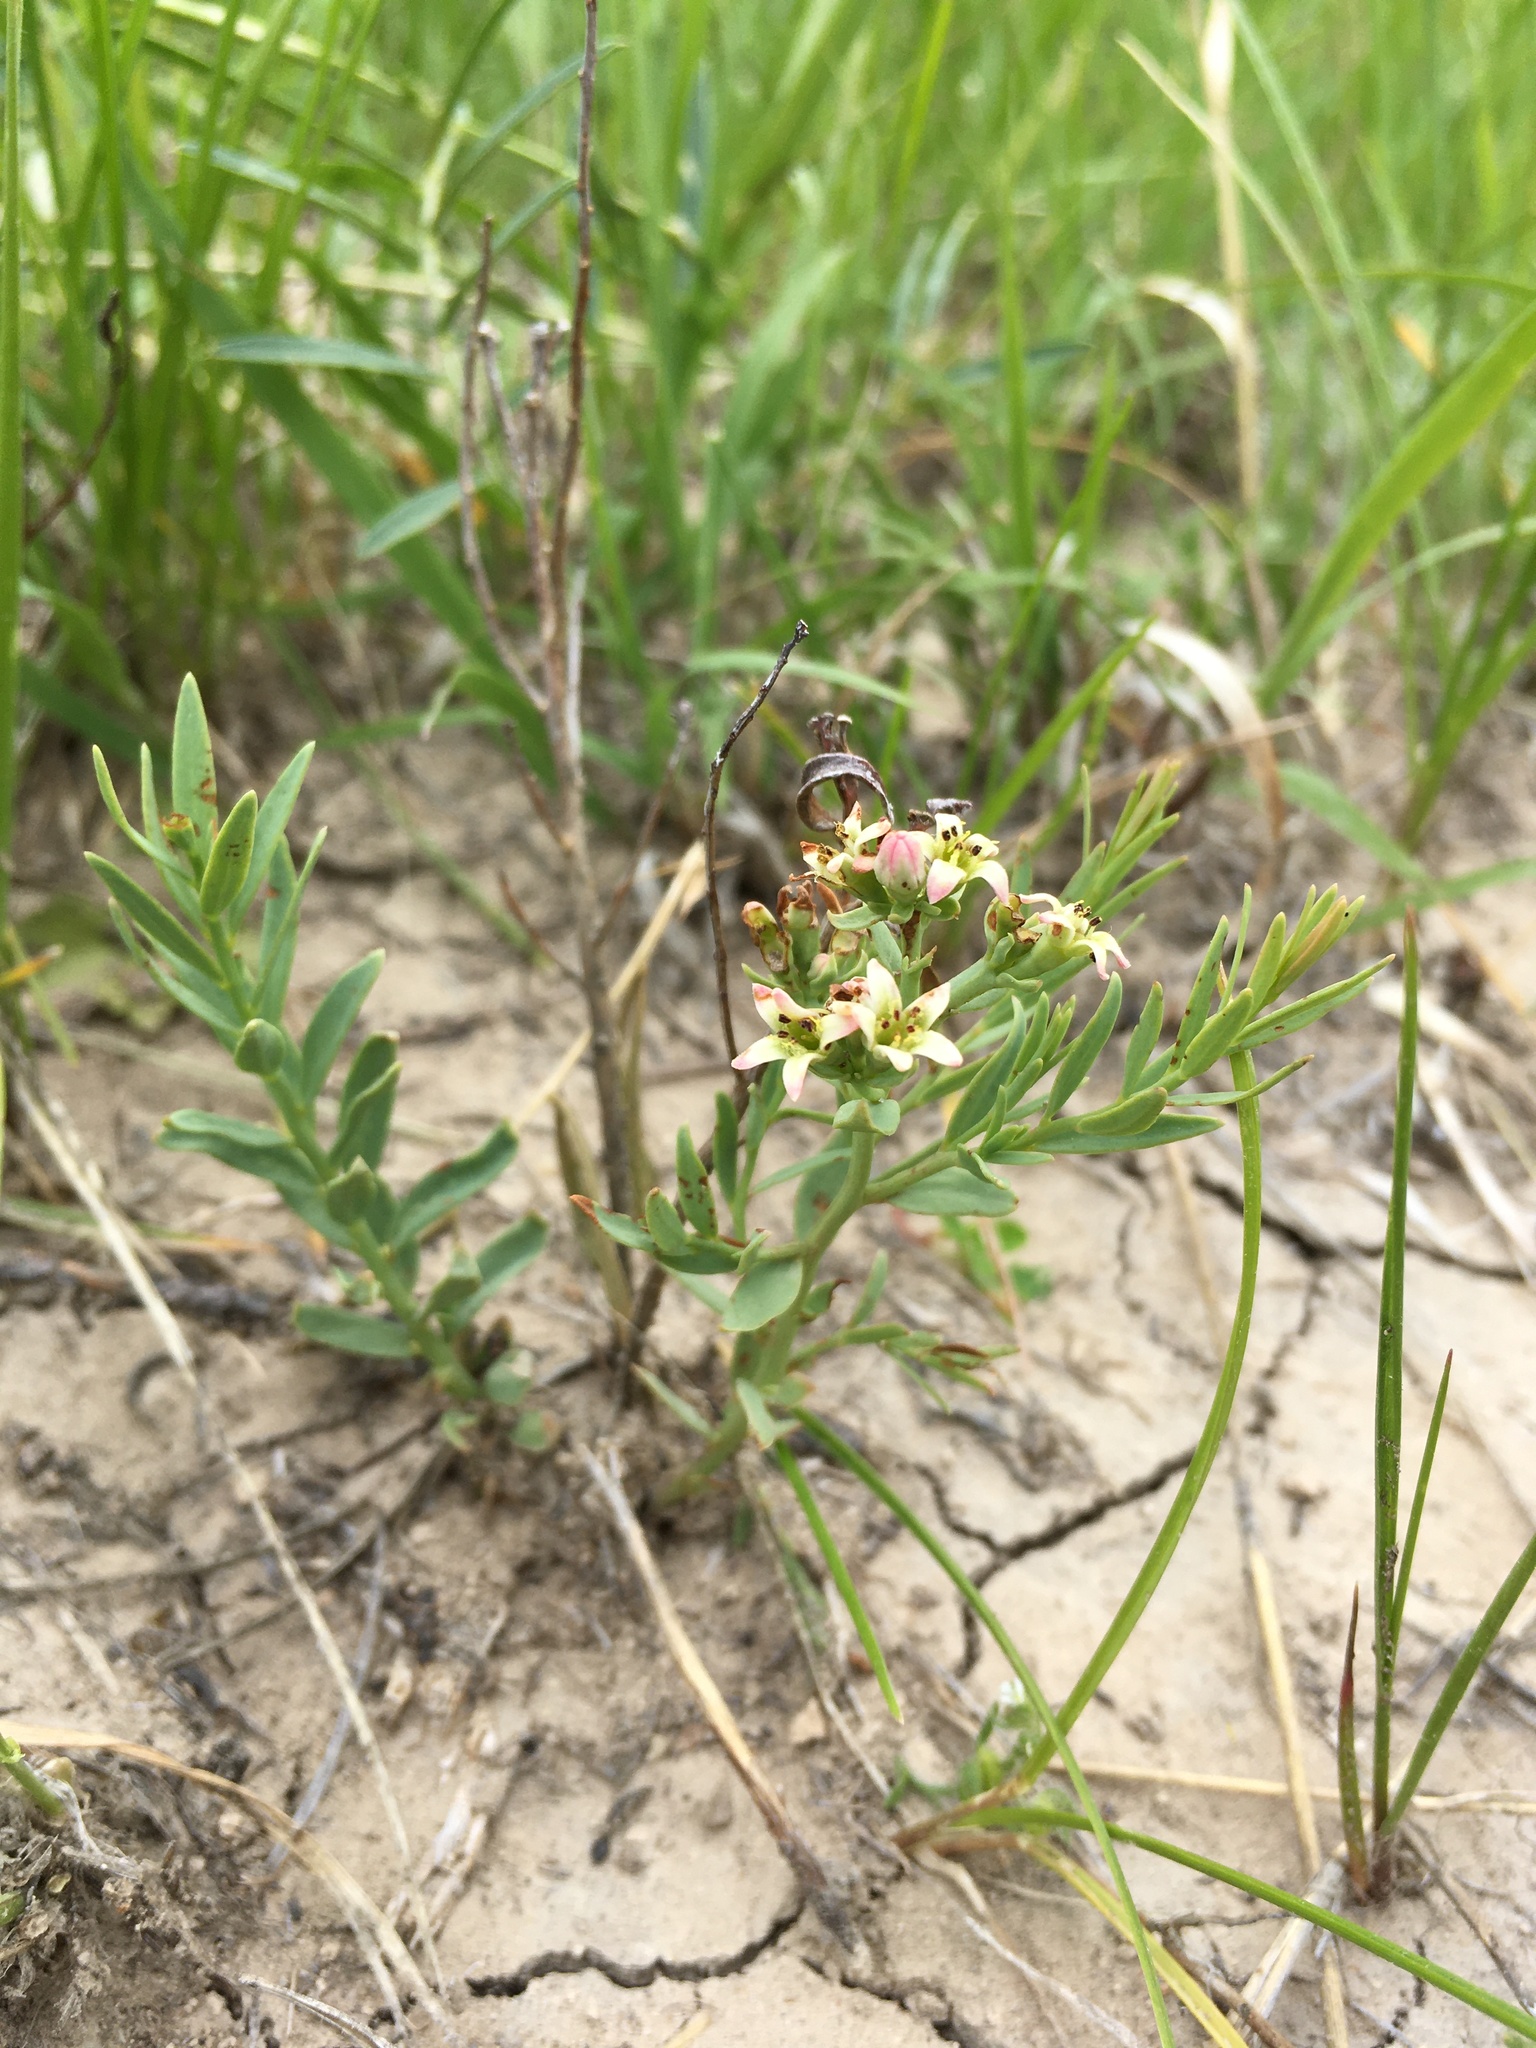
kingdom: Plantae
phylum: Tracheophyta
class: Magnoliopsida
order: Santalales
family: Comandraceae
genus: Comandra
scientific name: Comandra umbellata
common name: Bastard toadflax
